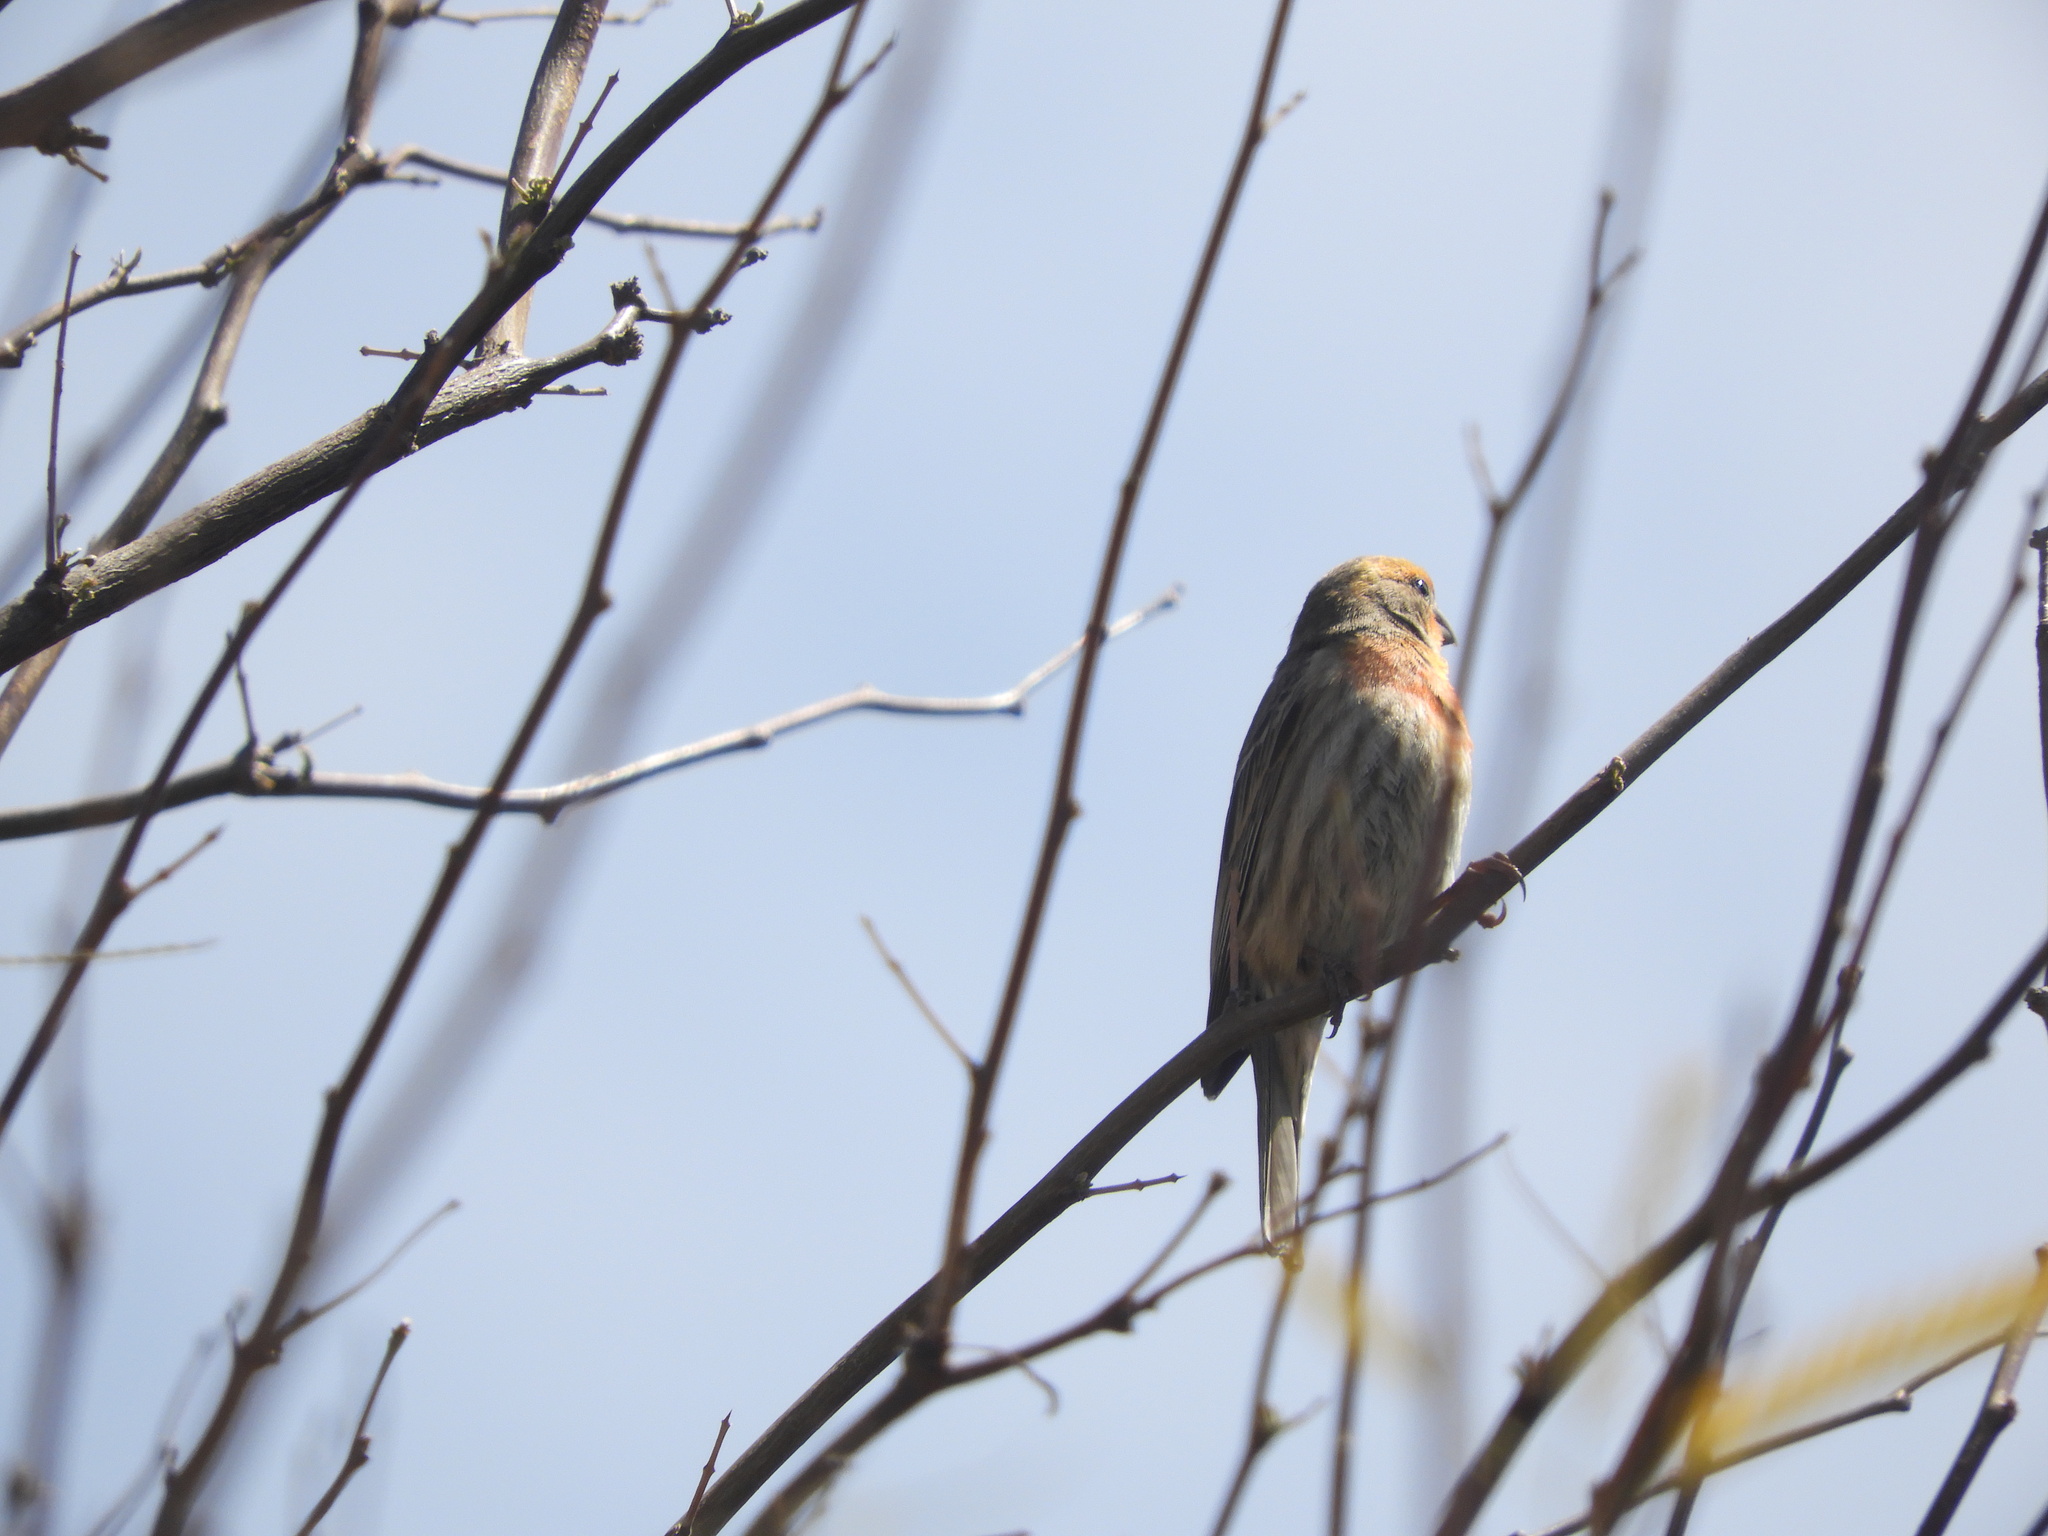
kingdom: Animalia
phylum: Chordata
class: Aves
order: Passeriformes
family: Fringillidae
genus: Haemorhous
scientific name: Haemorhous mexicanus
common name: House finch
